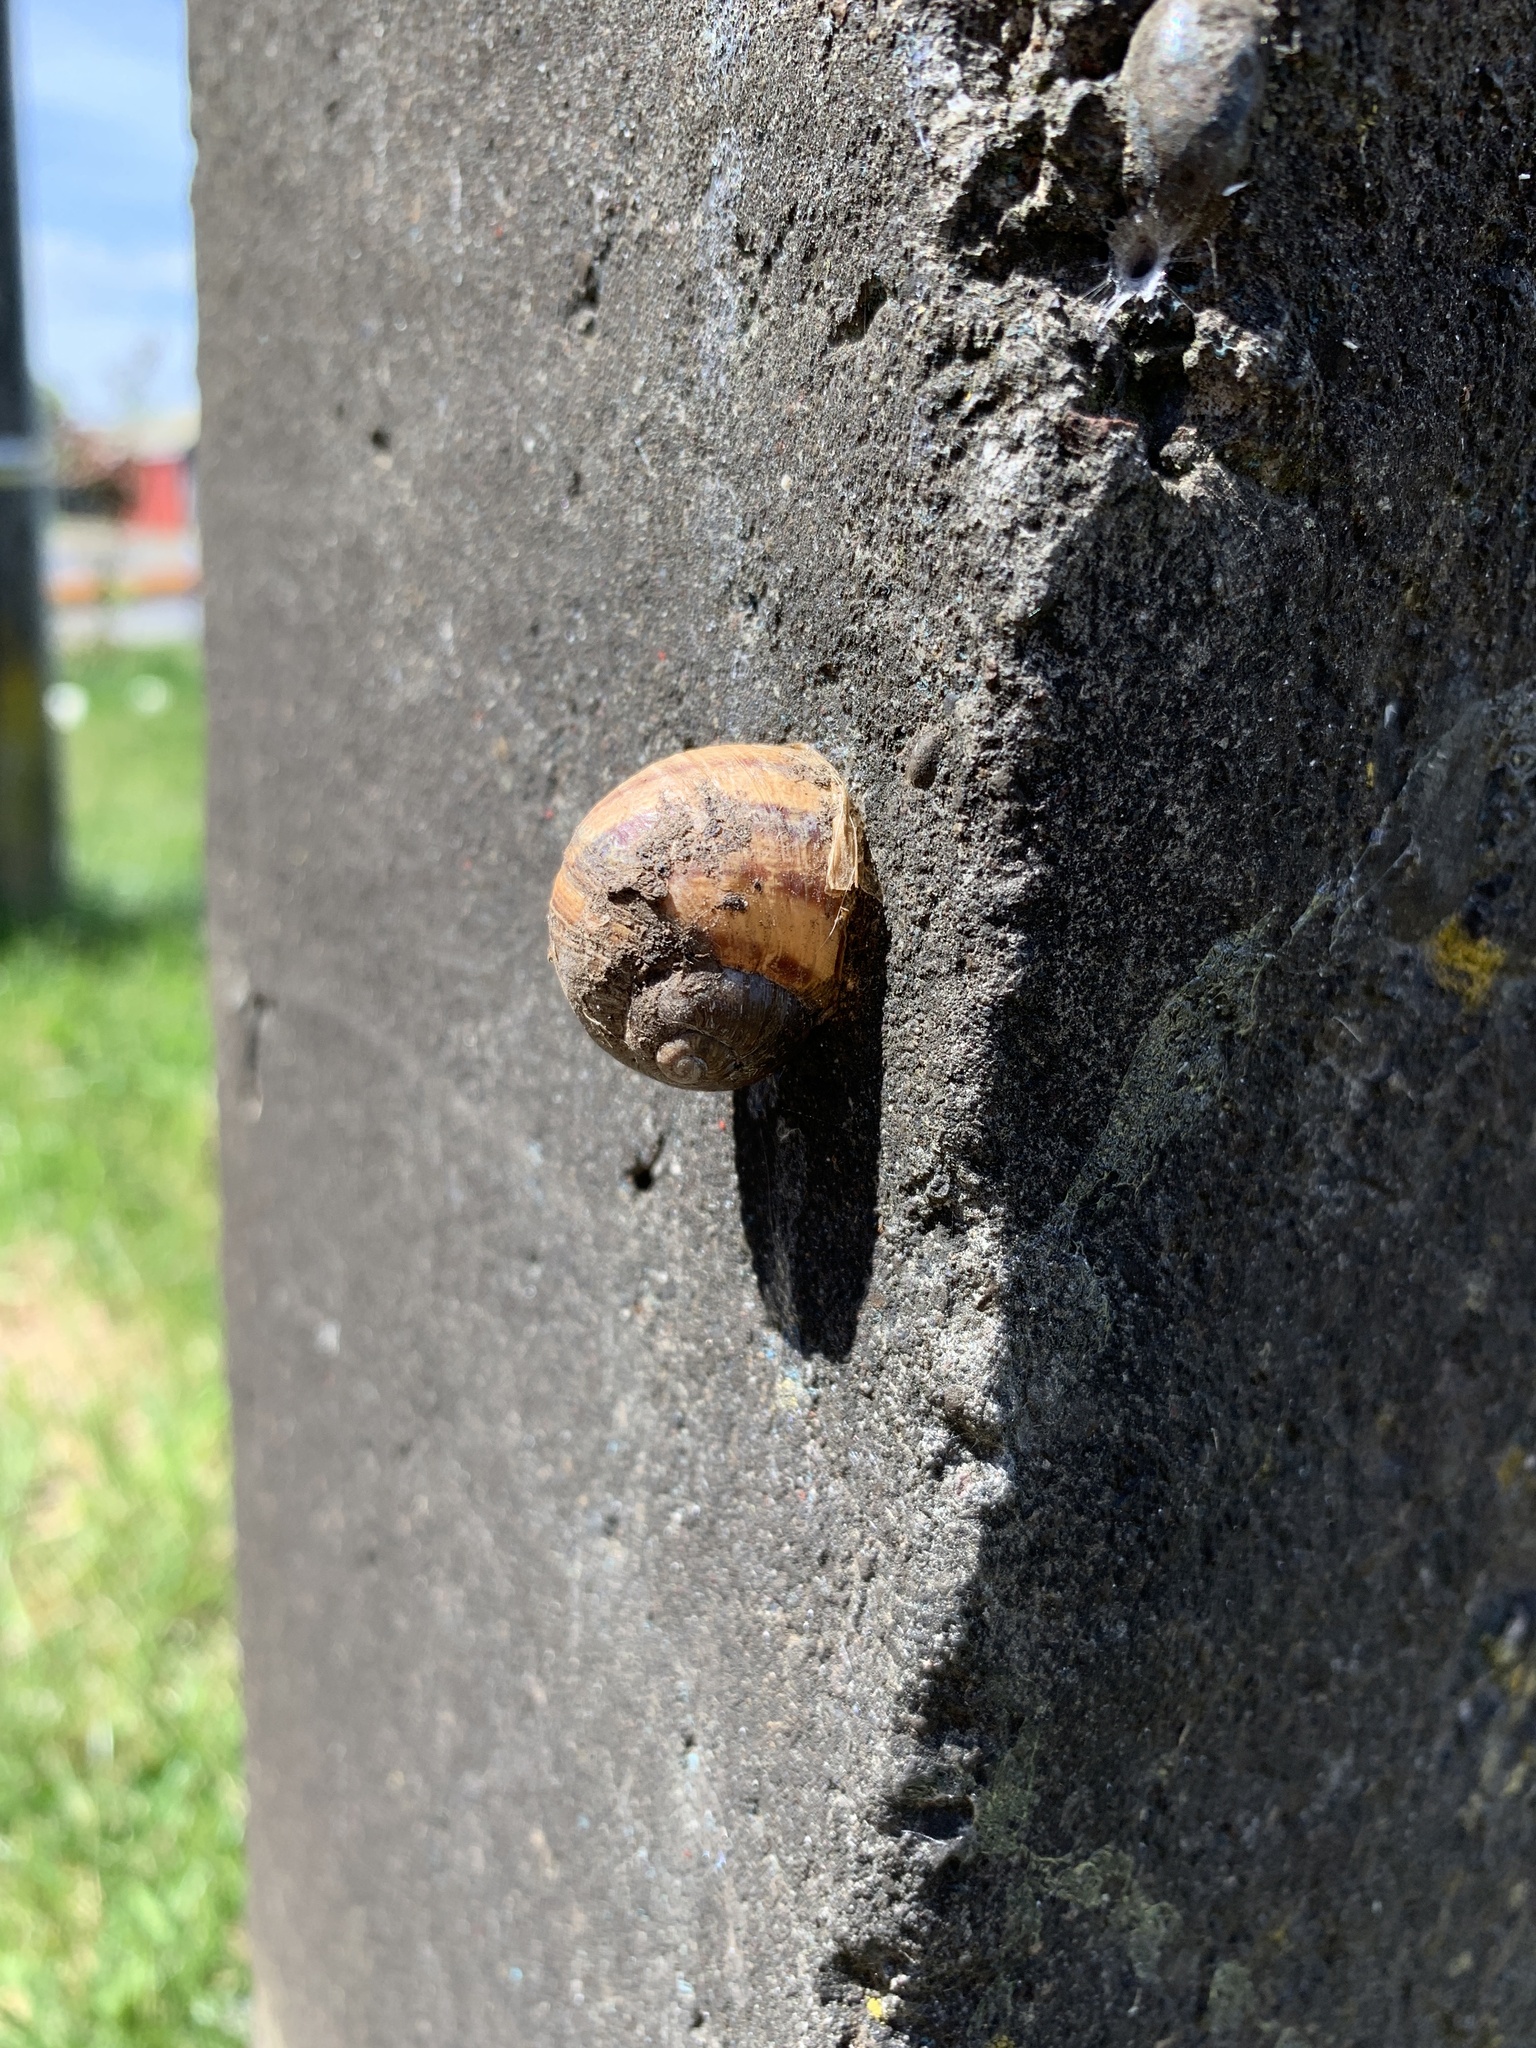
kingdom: Animalia
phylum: Mollusca
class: Gastropoda
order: Stylommatophora
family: Helicidae
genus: Cornu
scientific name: Cornu aspersum
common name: Brown garden snail
